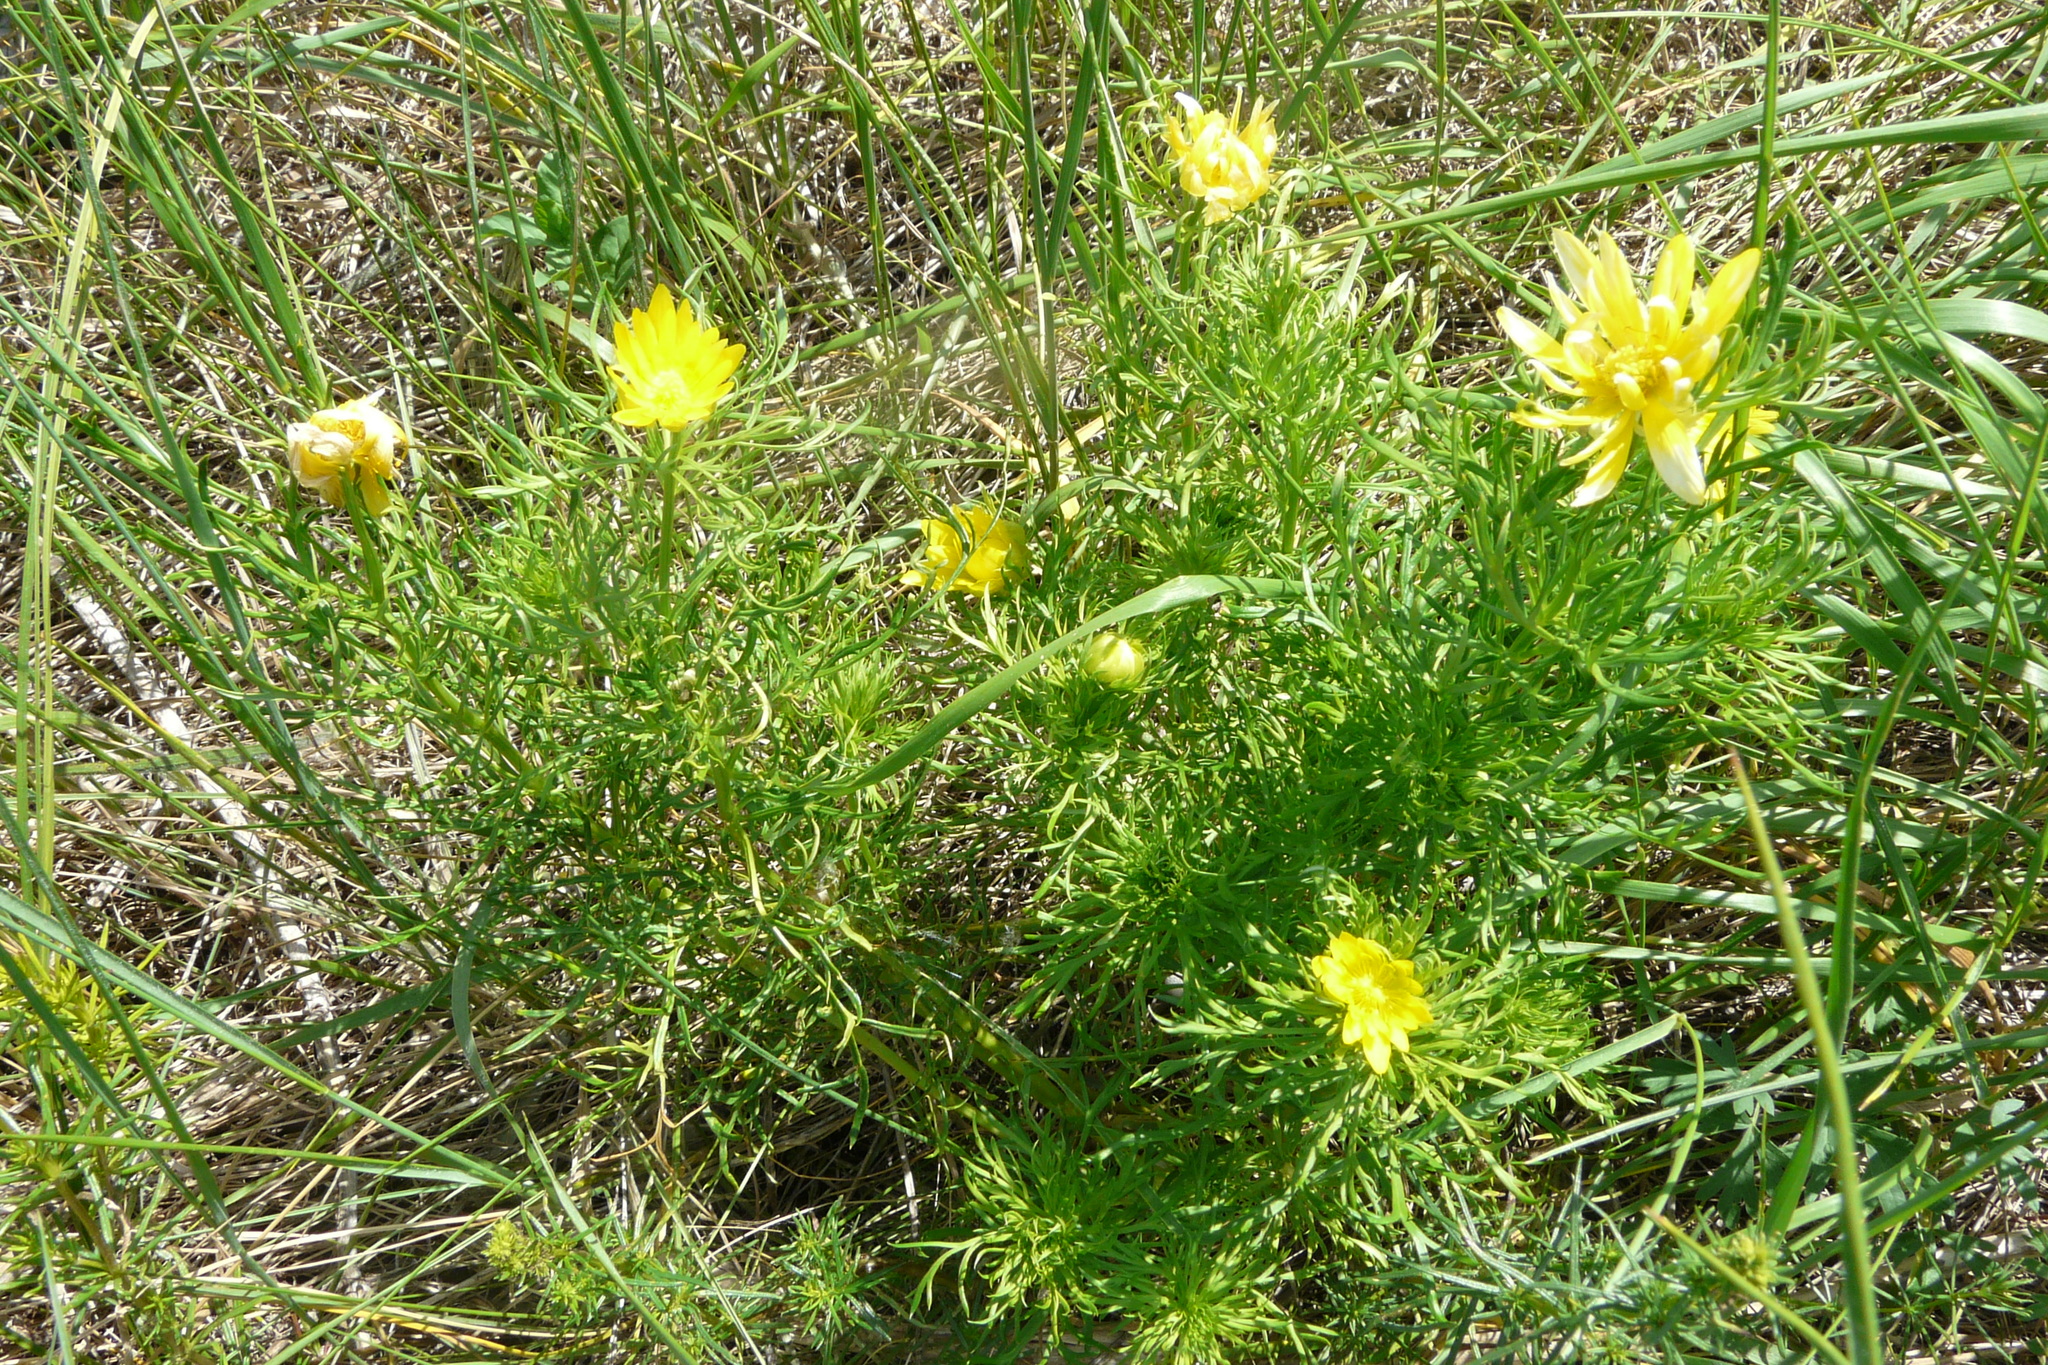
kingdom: Plantae
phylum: Tracheophyta
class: Magnoliopsida
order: Ranunculales
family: Ranunculaceae
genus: Adonis
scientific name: Adonis volgensis
